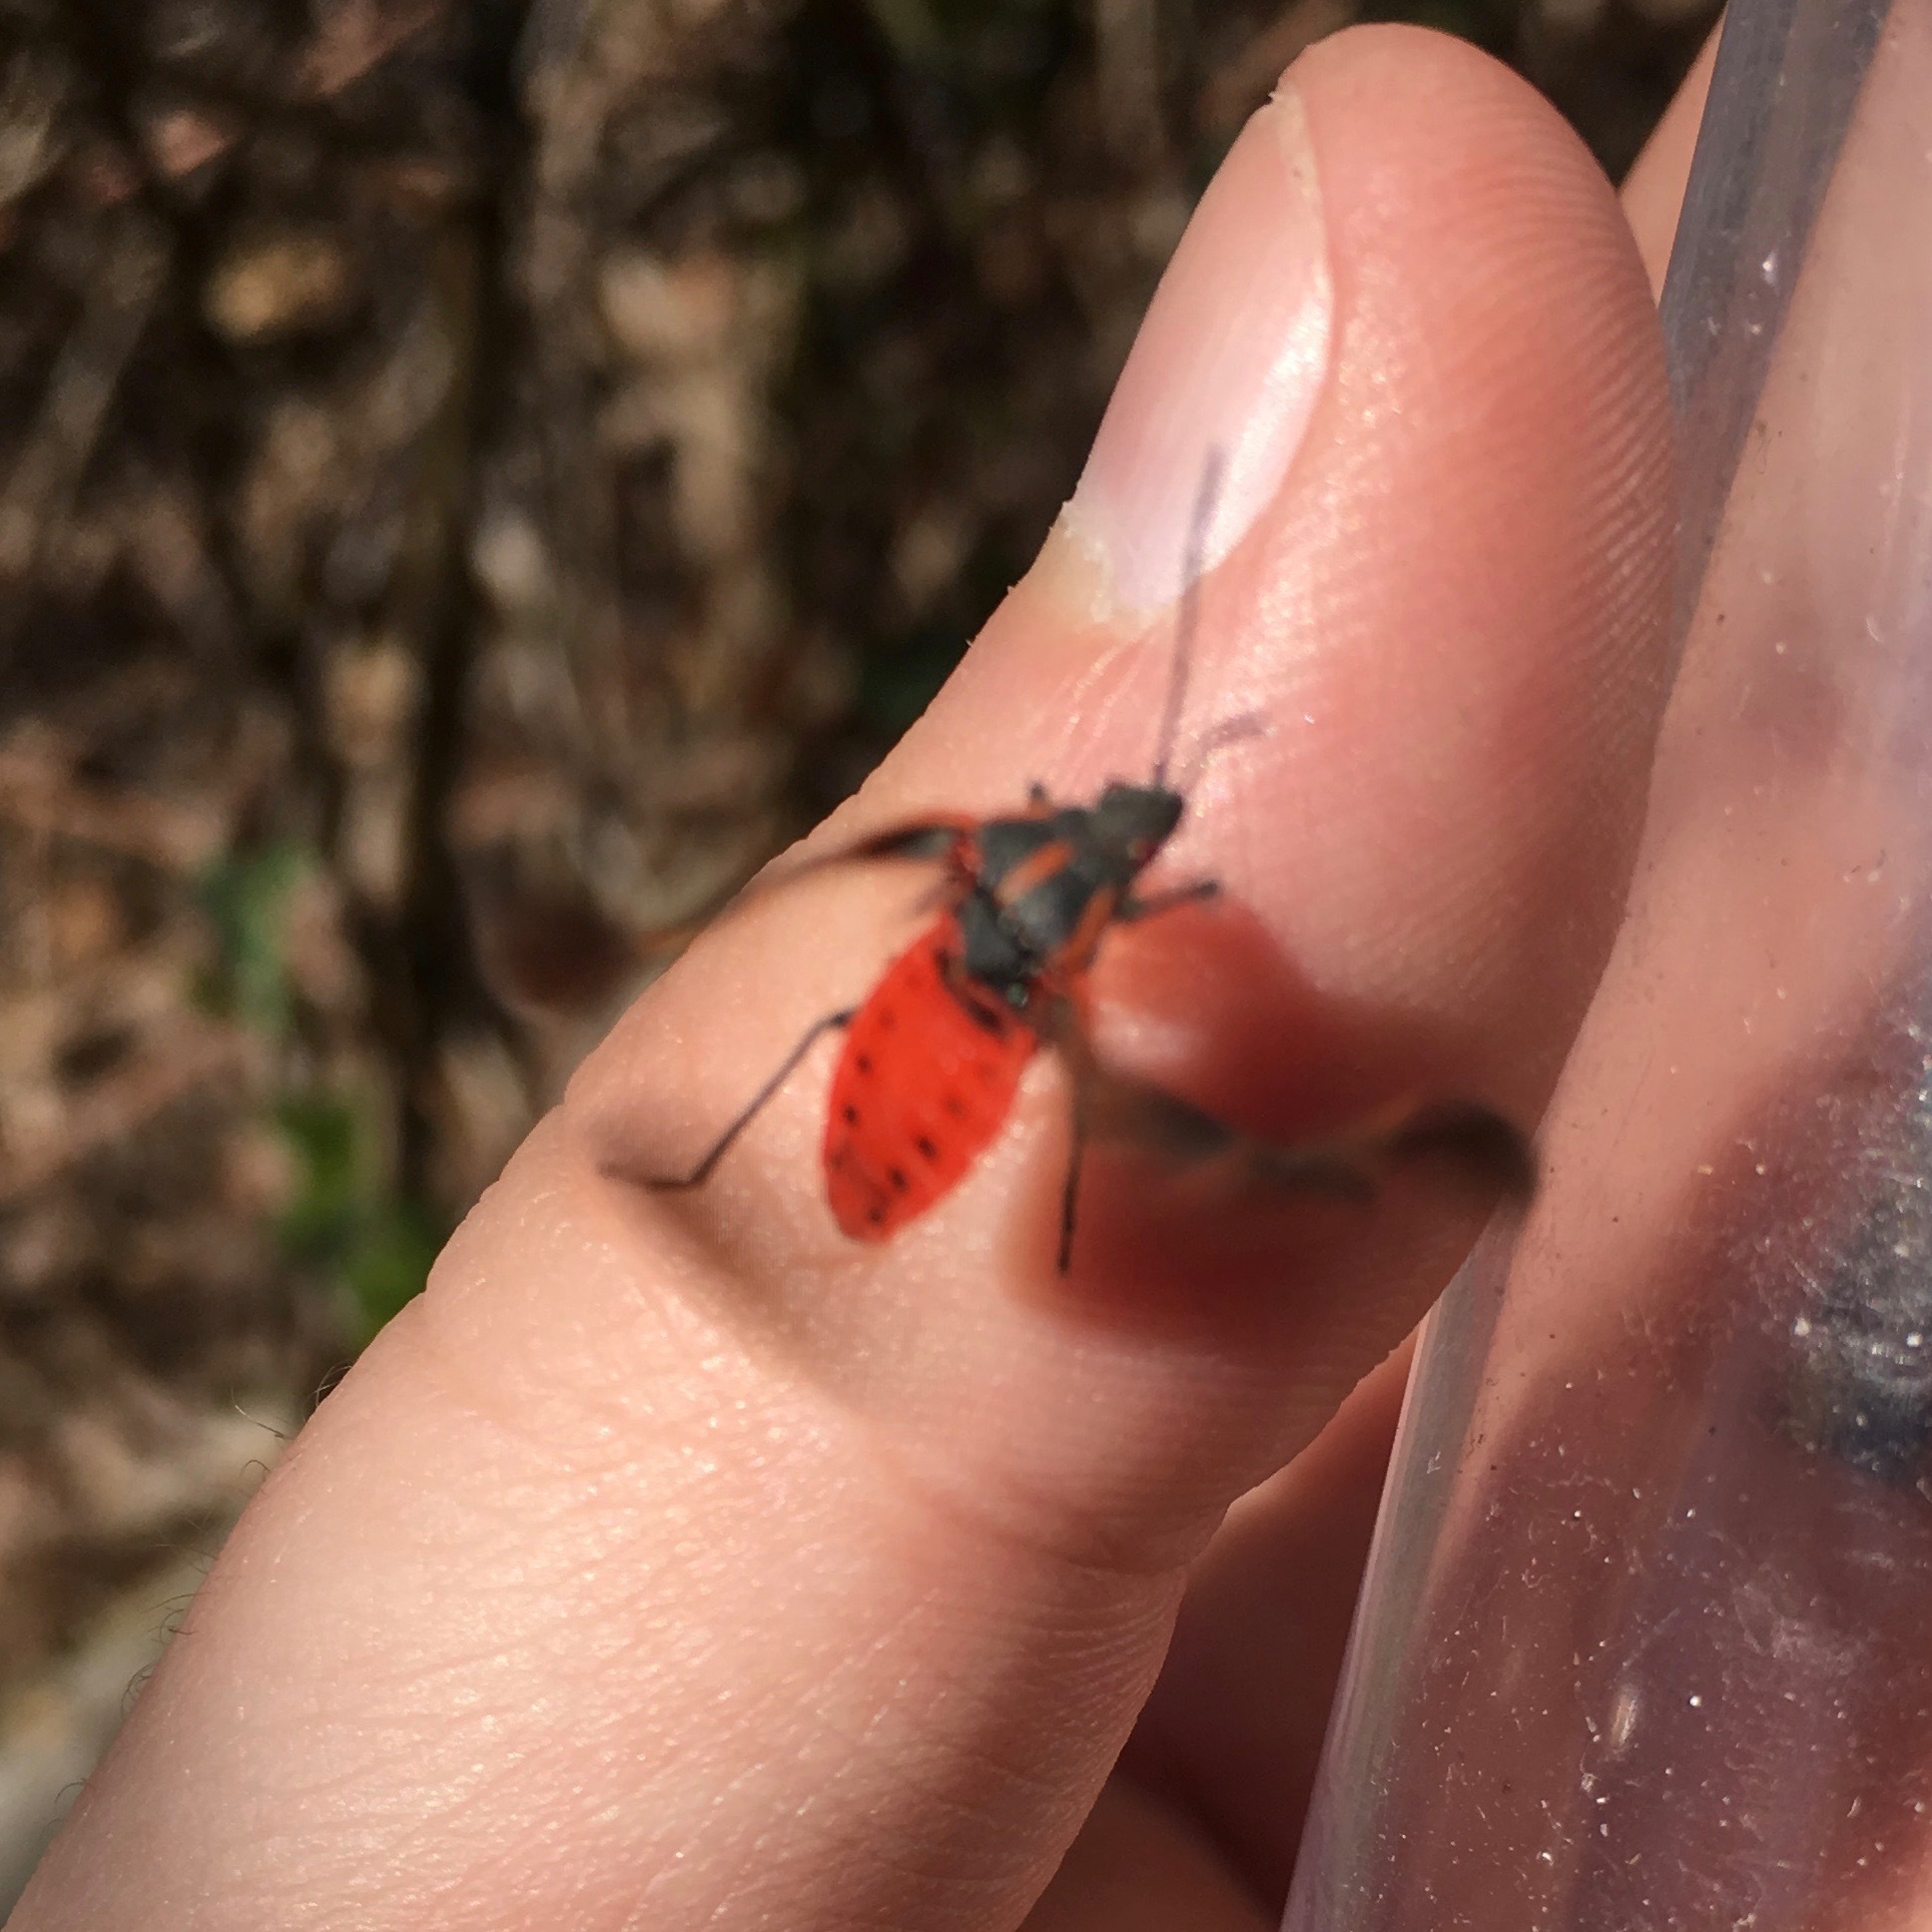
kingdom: Animalia
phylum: Arthropoda
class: Insecta
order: Hemiptera
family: Rhopalidae
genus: Boisea
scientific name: Boisea trivittata
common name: Boxelder bug
